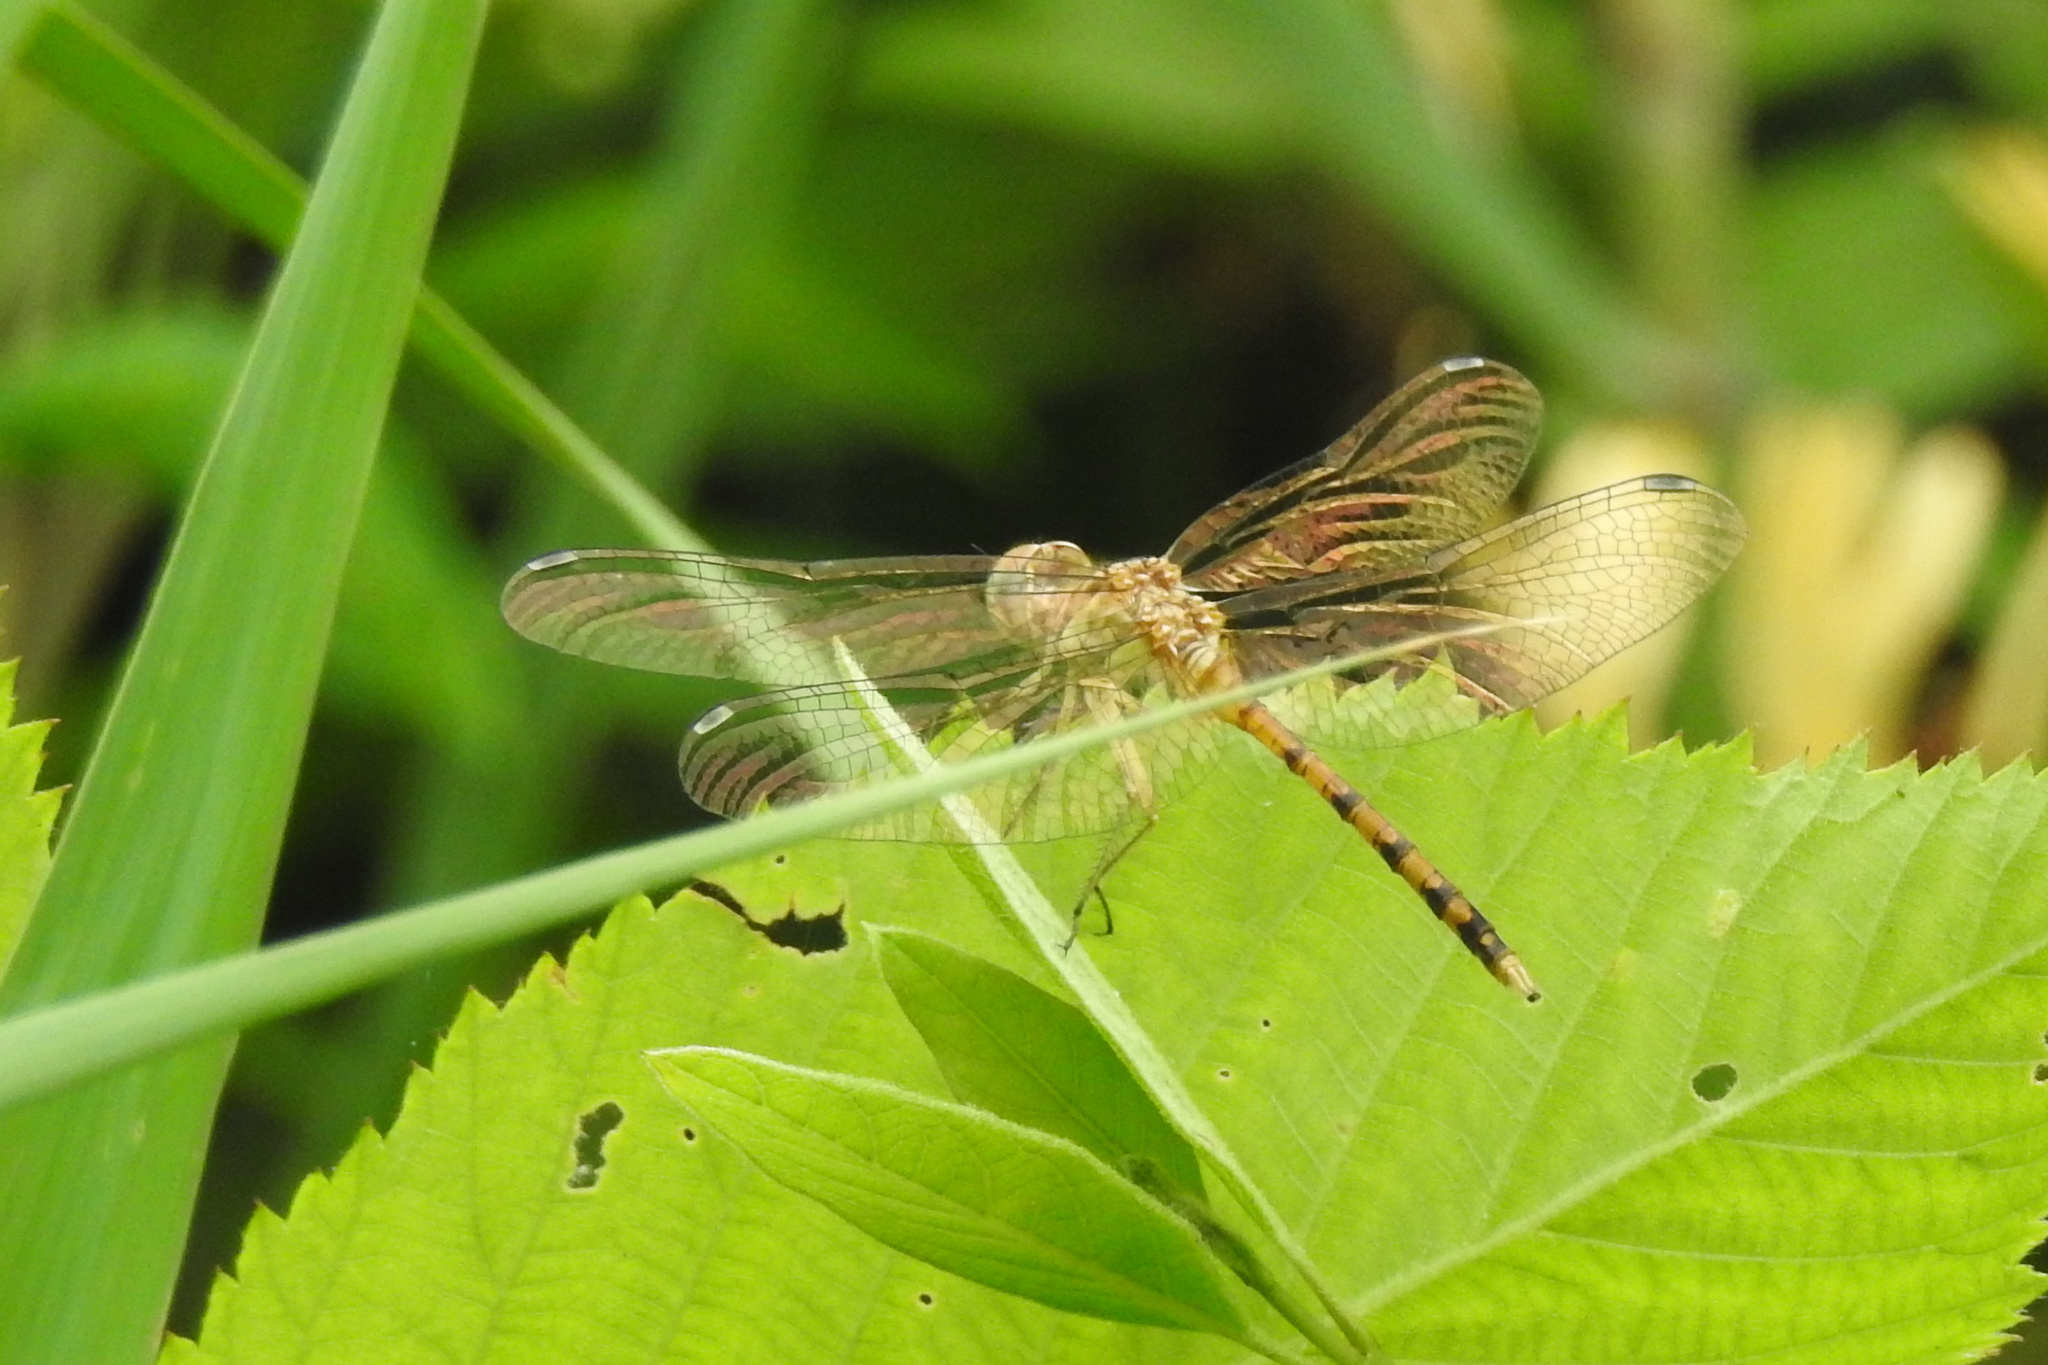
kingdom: Animalia
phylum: Arthropoda
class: Insecta
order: Odonata
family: Libellulidae
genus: Sympetrum
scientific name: Sympetrum ambiguum
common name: Blue-faced meadowhawk
